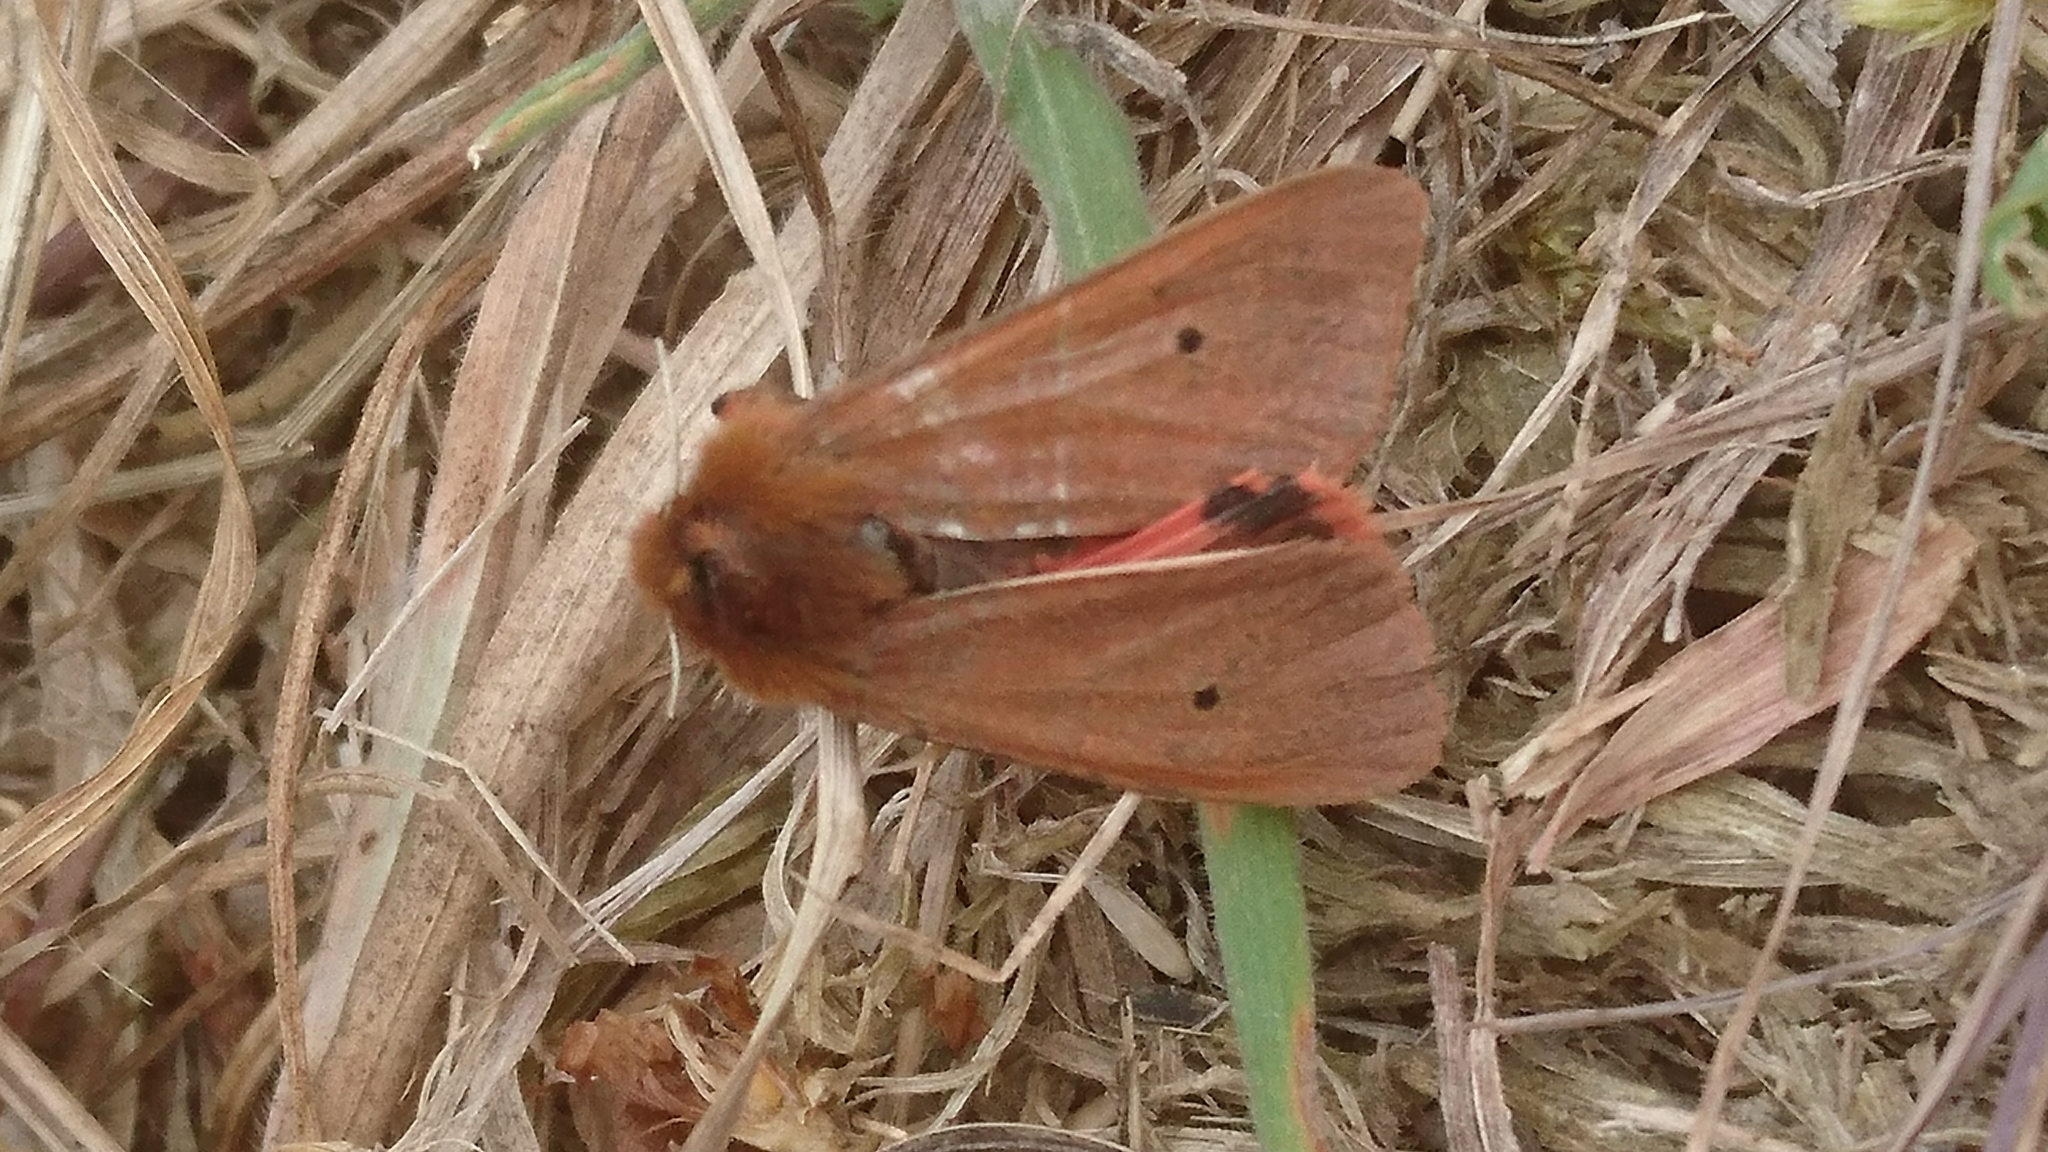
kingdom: Animalia
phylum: Arthropoda
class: Insecta
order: Lepidoptera
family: Erebidae
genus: Phragmatobia
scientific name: Phragmatobia fuliginosa
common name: Ruby tiger
